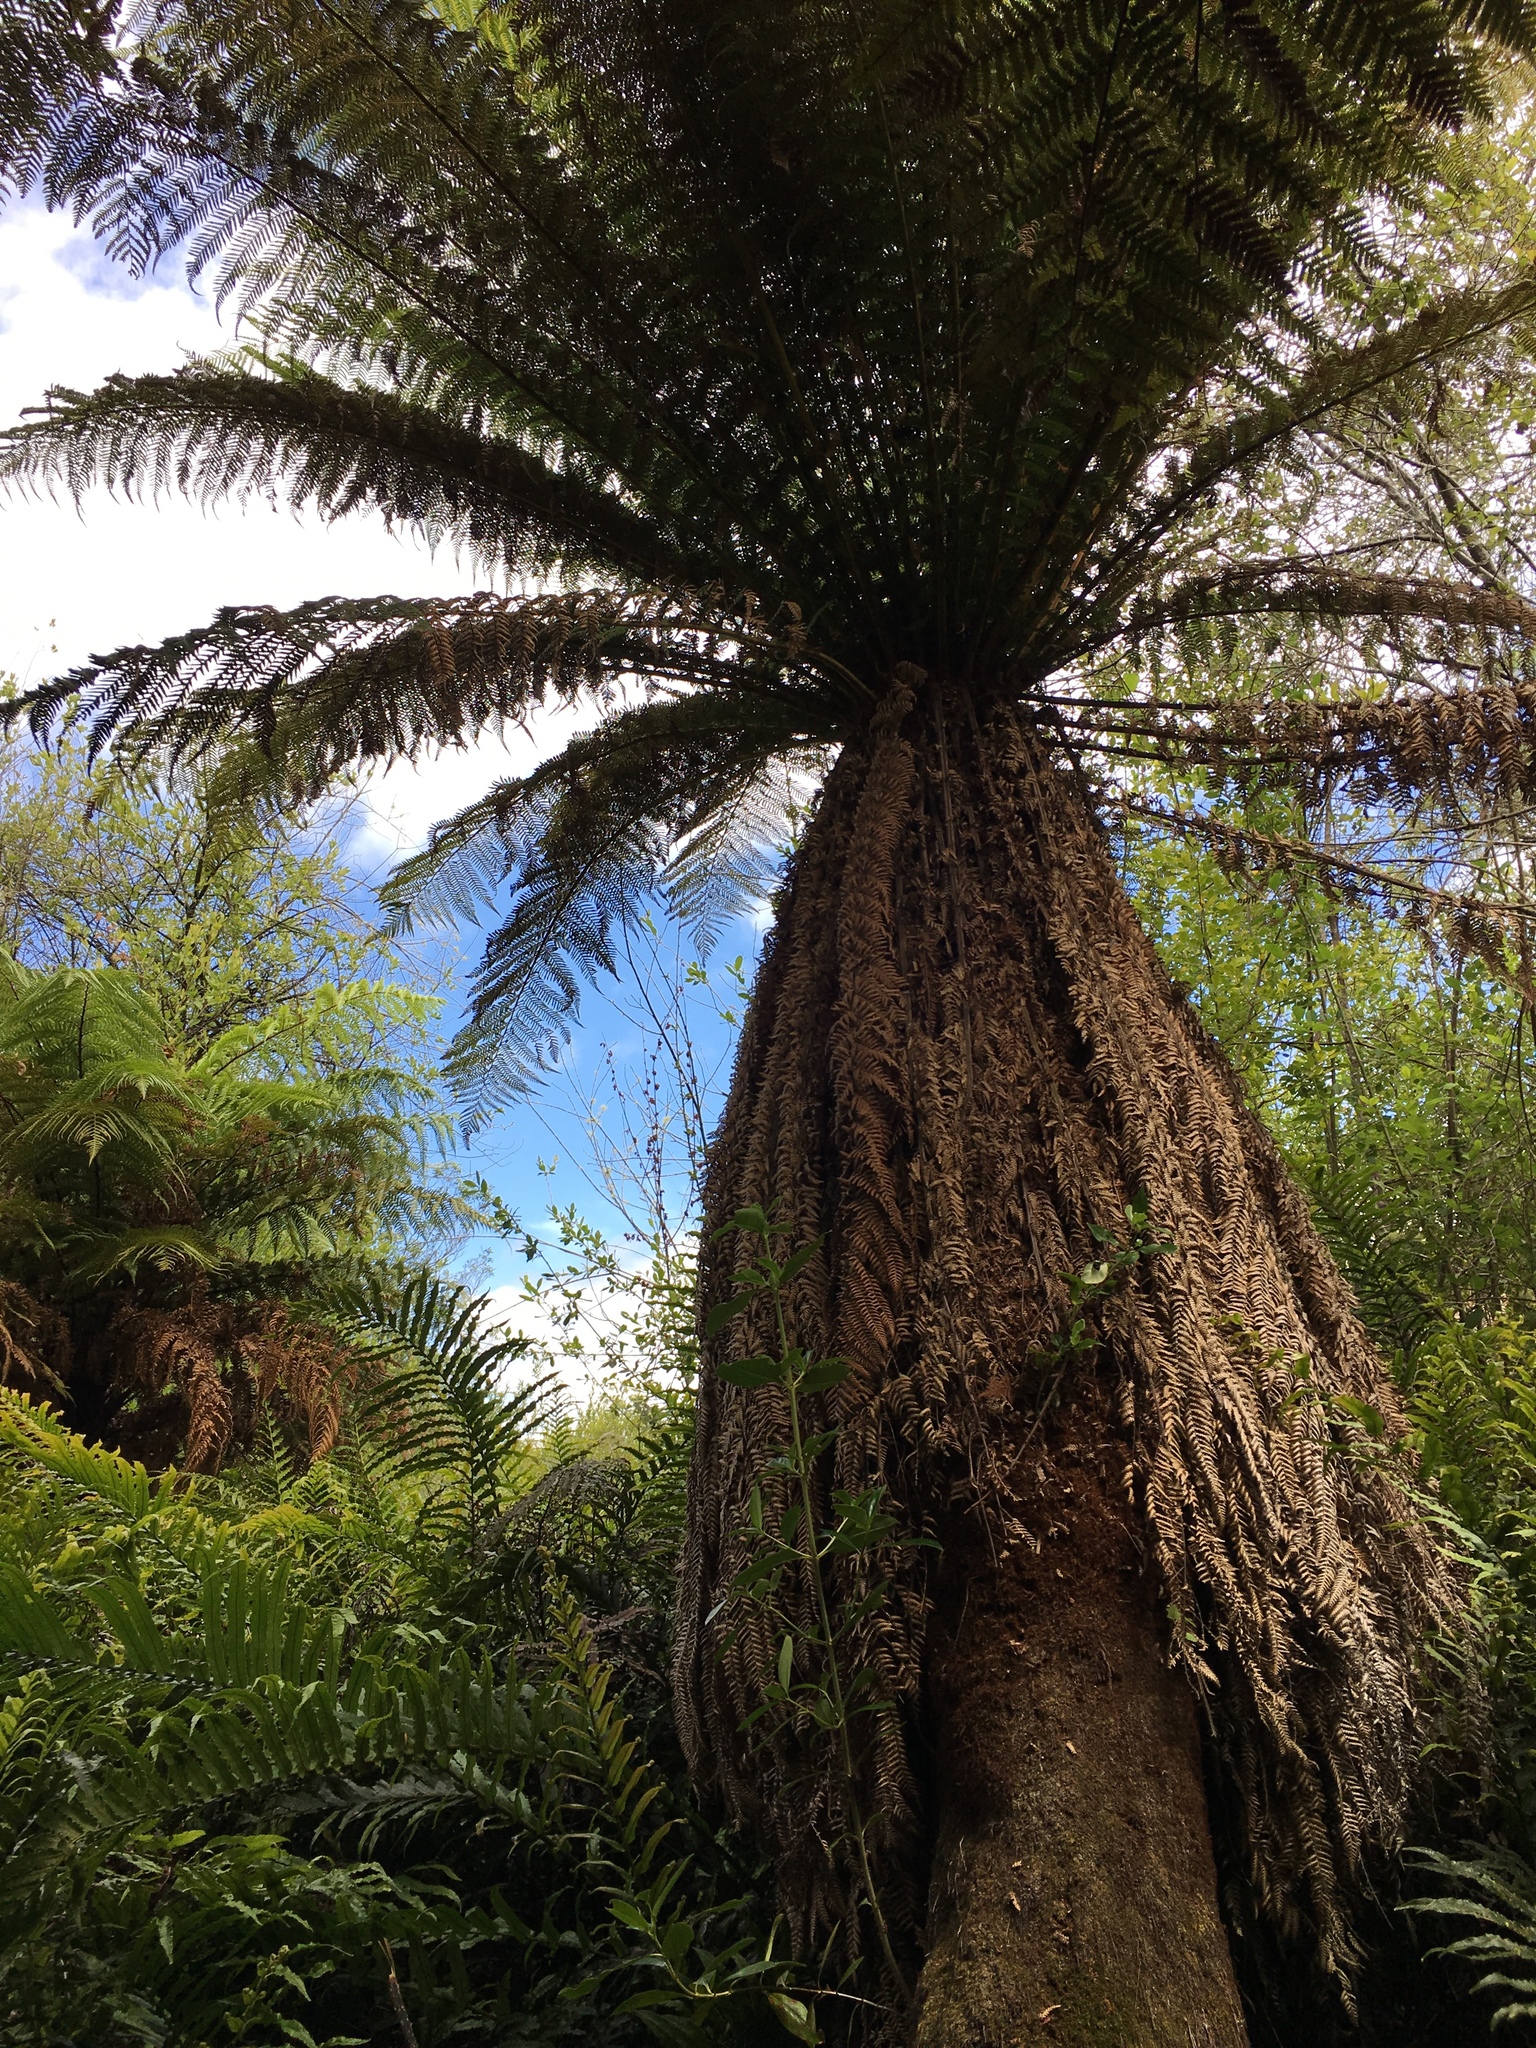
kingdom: Plantae
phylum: Tracheophyta
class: Polypodiopsida
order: Cyatheales
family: Dicksoniaceae
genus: Dicksonia
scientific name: Dicksonia fibrosa
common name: Golden tree fern
